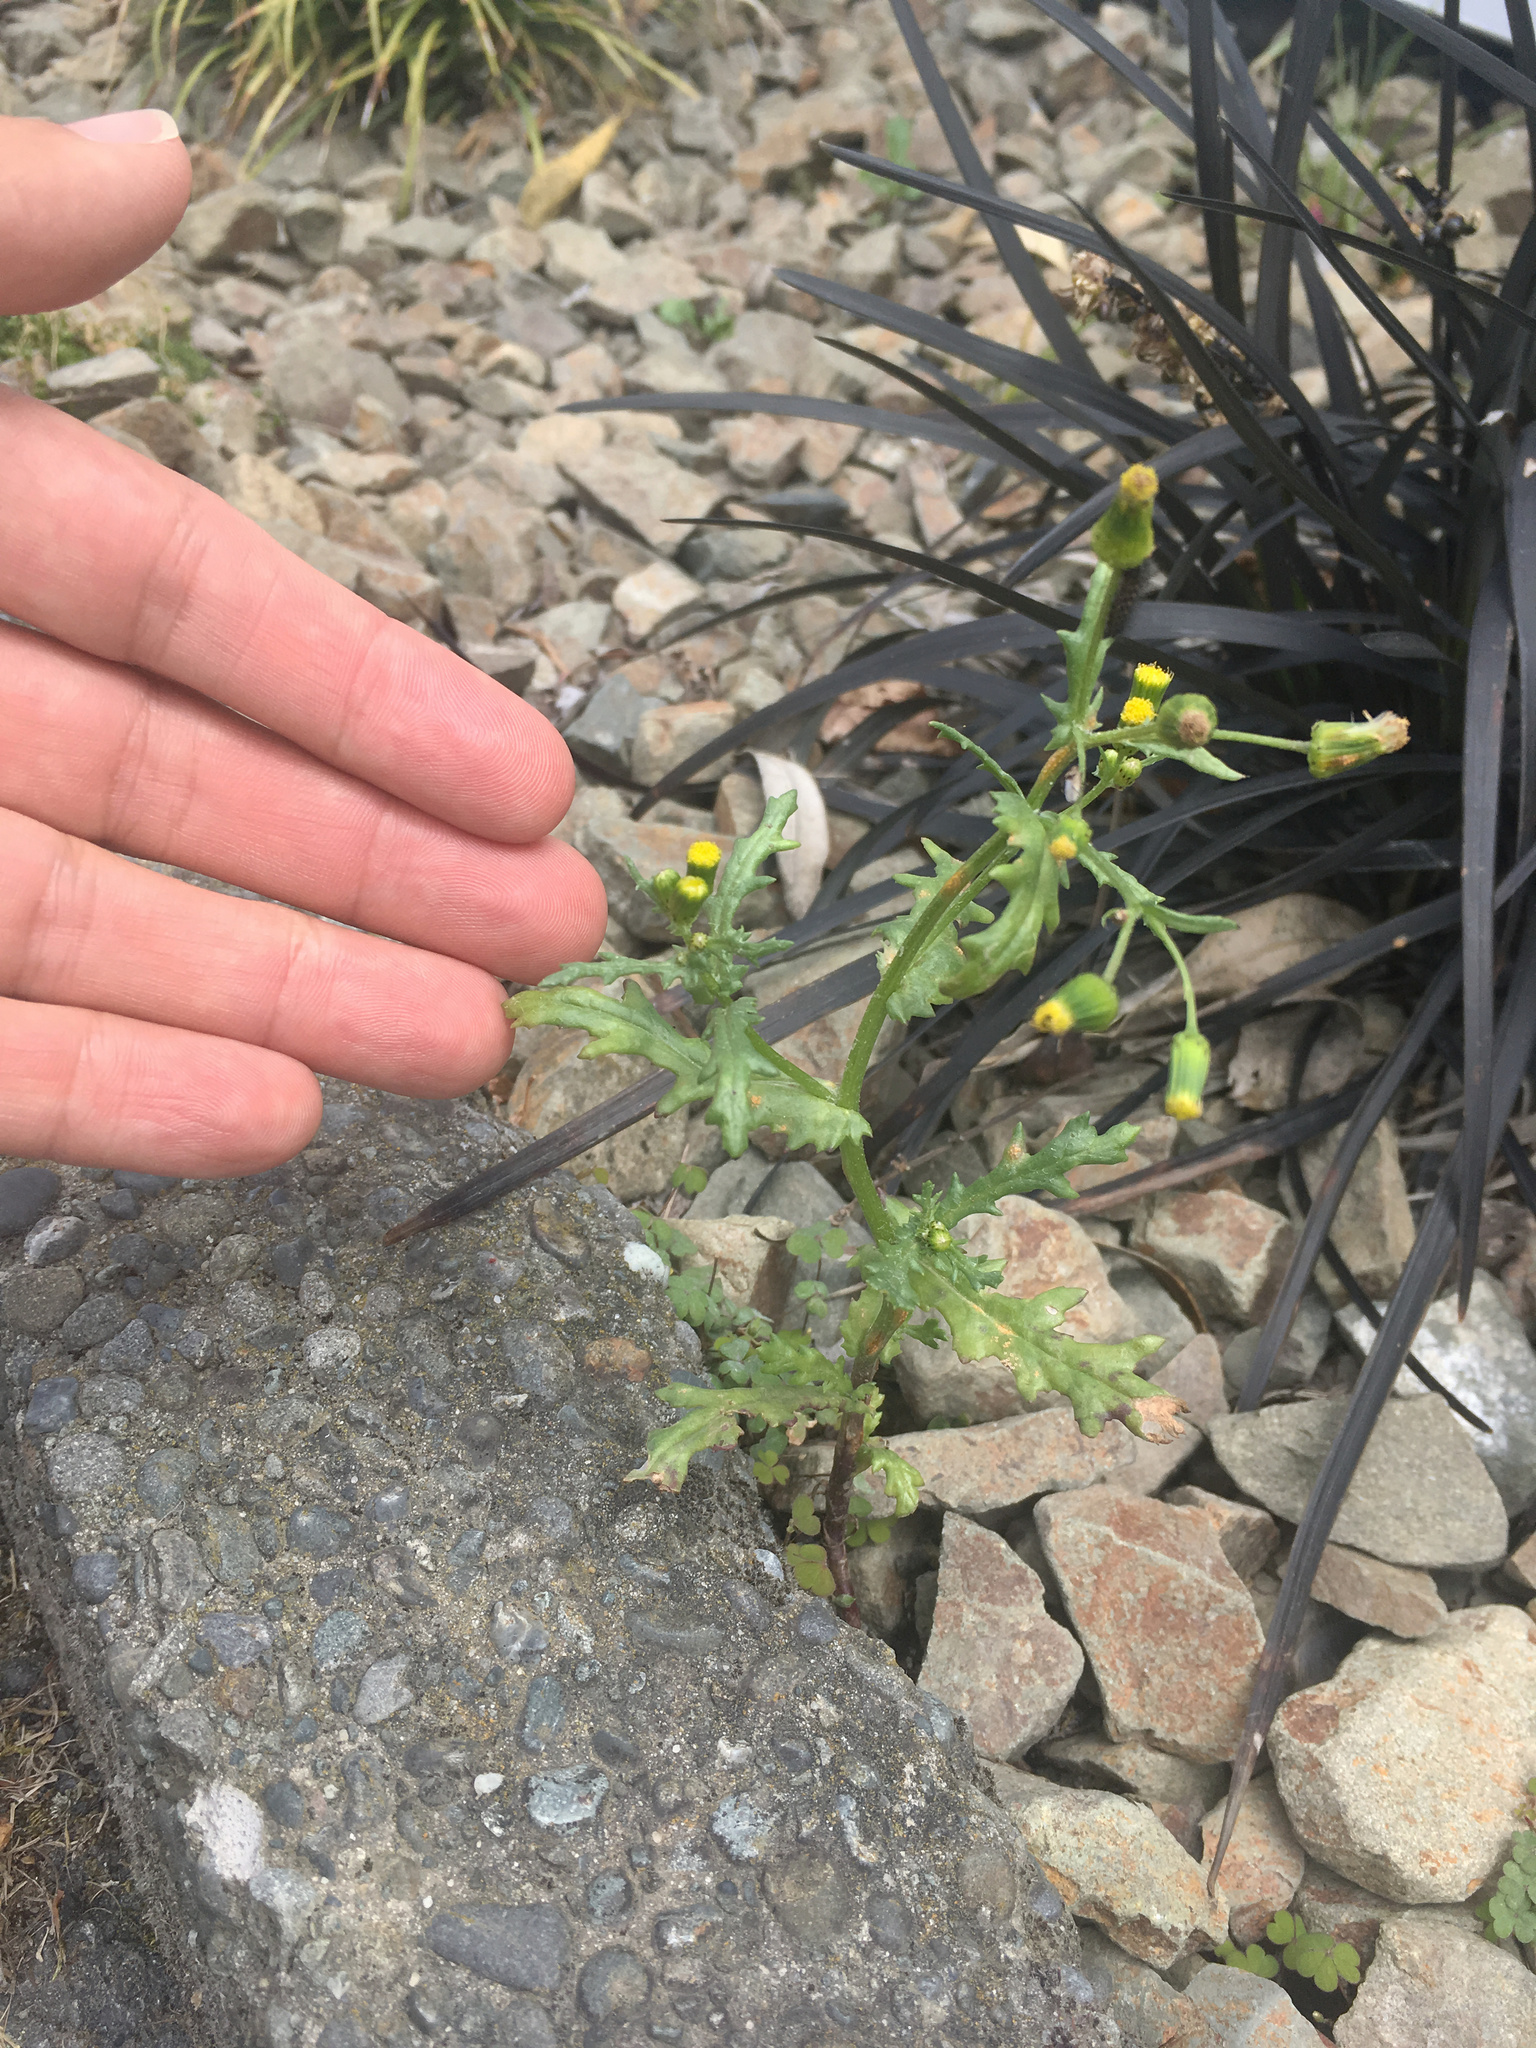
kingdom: Plantae
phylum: Tracheophyta
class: Magnoliopsida
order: Asterales
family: Asteraceae
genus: Senecio
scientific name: Senecio vulgaris
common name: Old-man-in-the-spring
